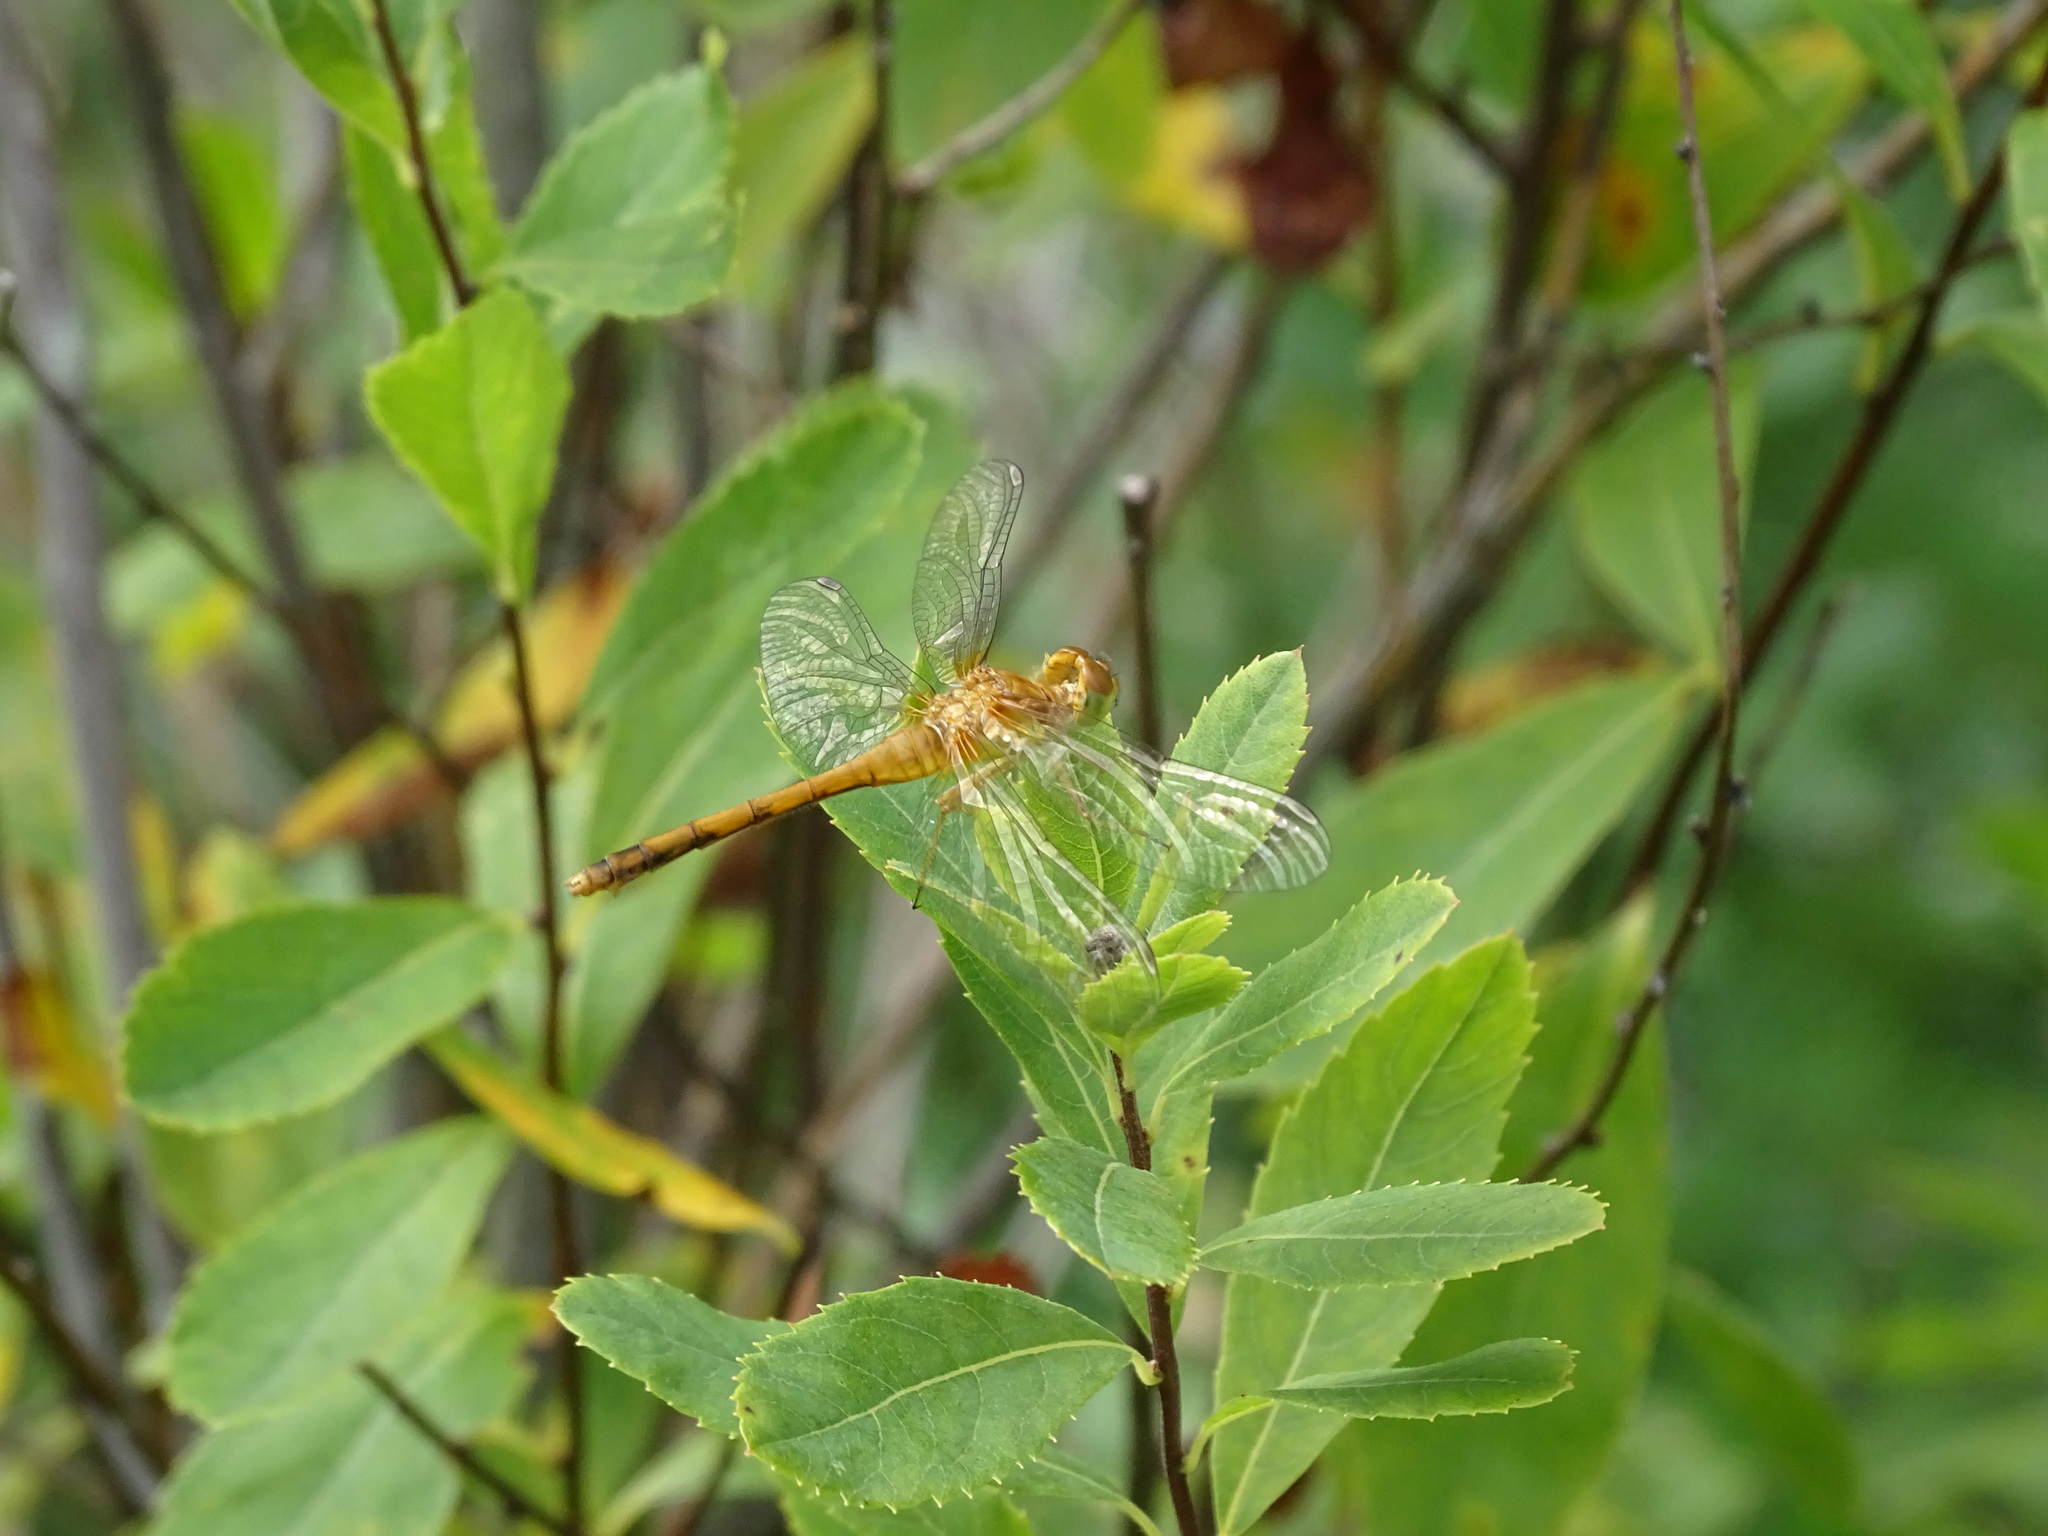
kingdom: Animalia
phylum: Arthropoda
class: Insecta
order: Odonata
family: Libellulidae
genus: Sympetrum
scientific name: Sympetrum vicinum
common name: Autumn meadowhawk
